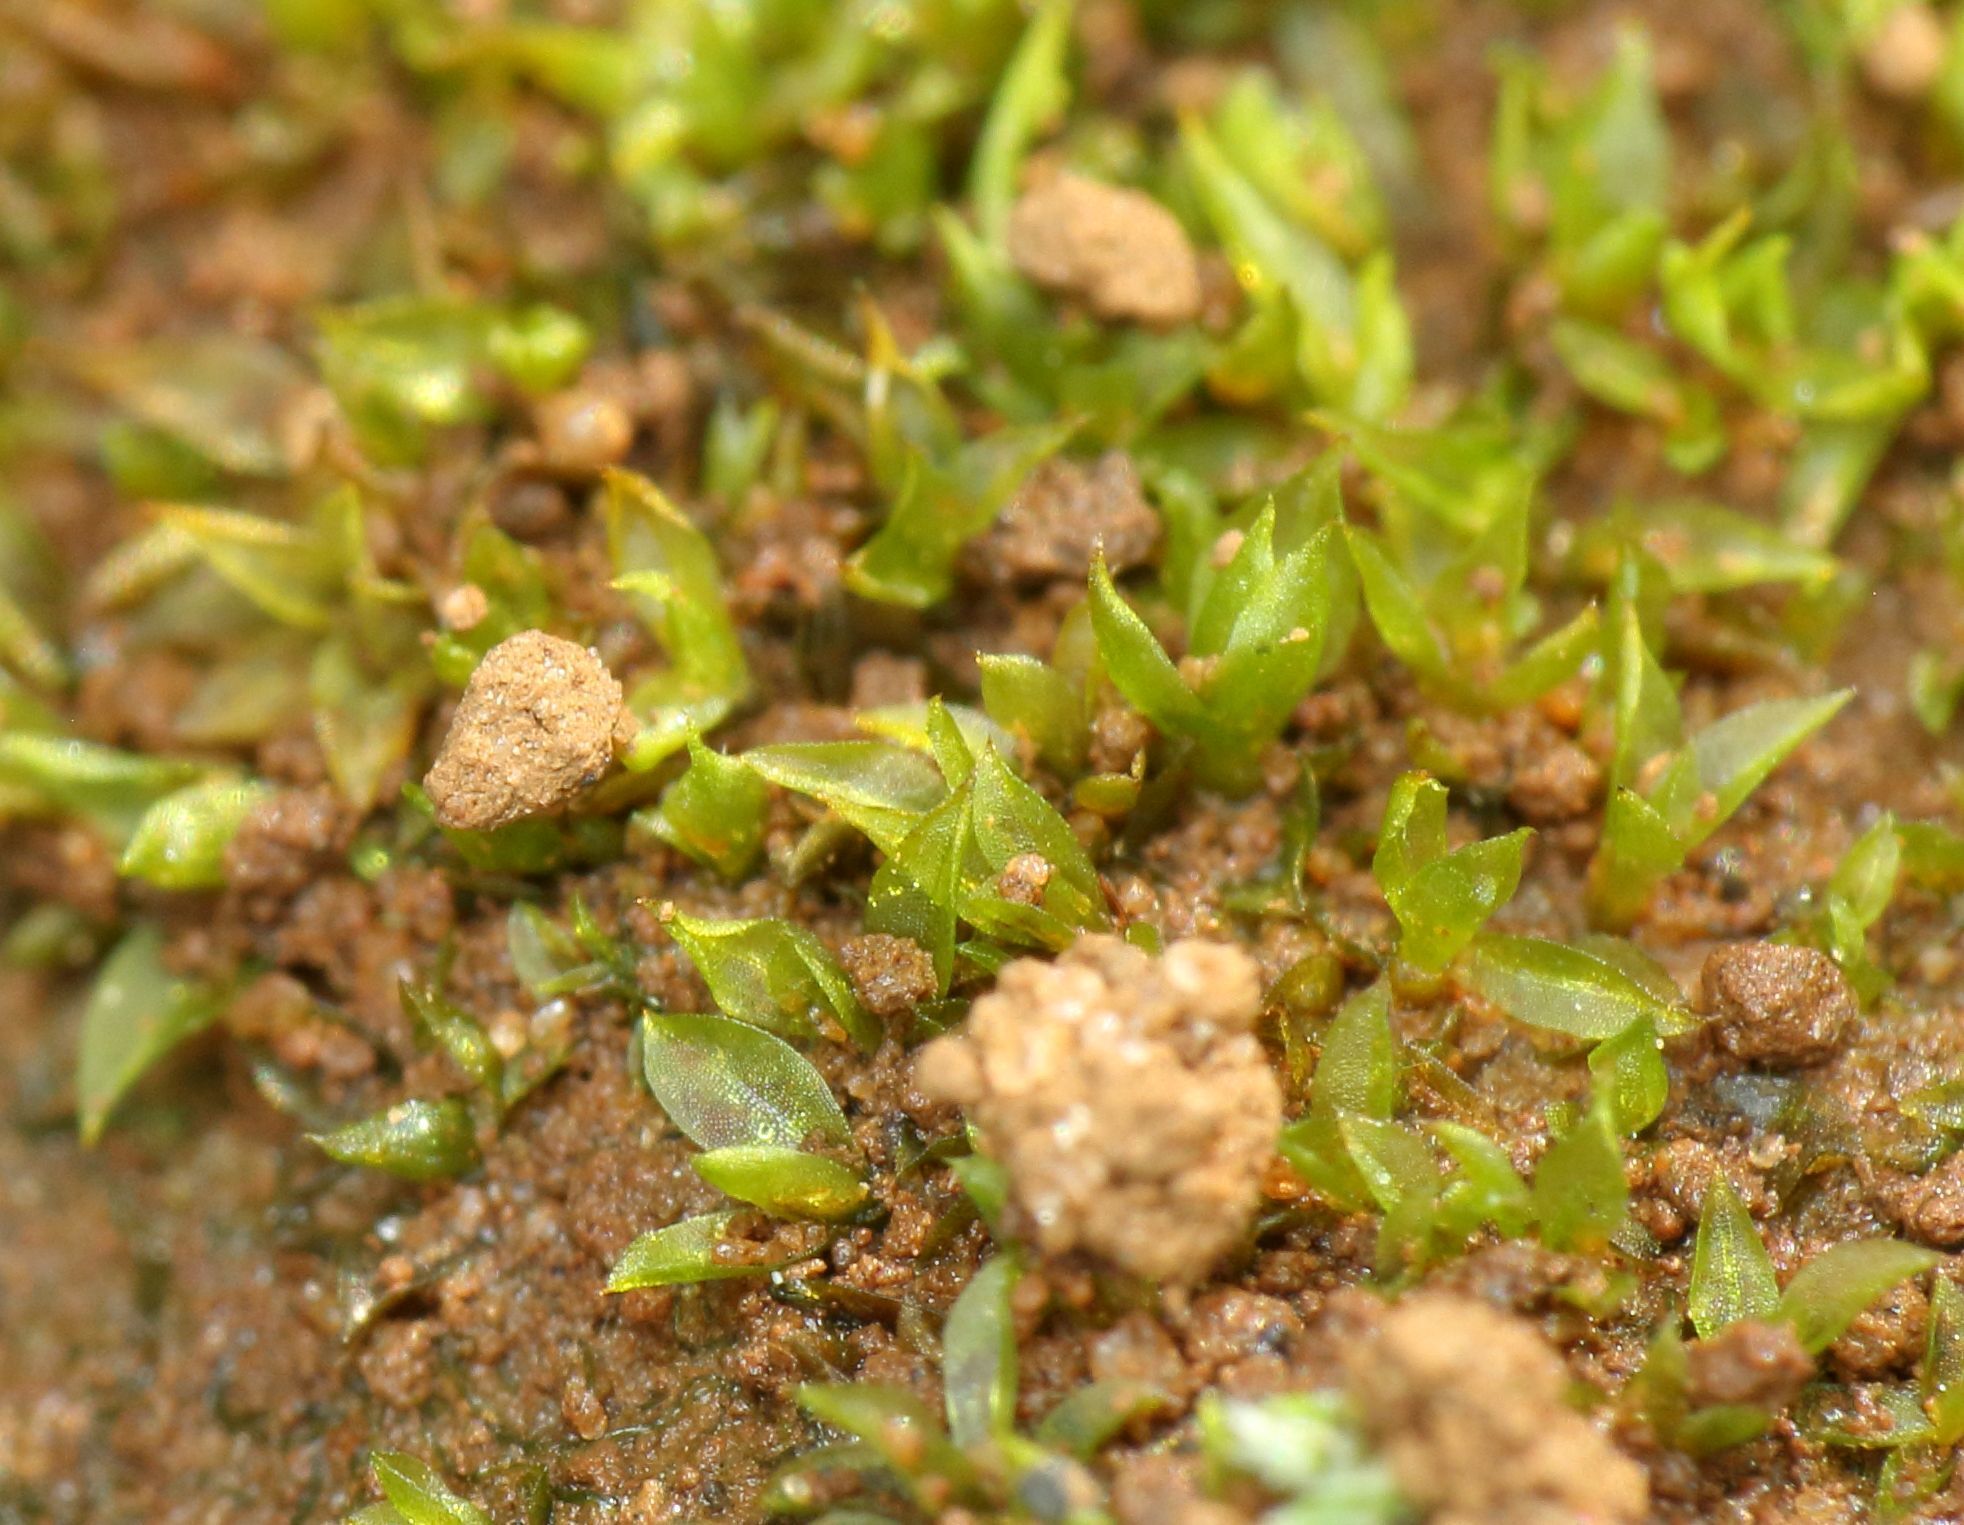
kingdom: Plantae
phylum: Bryophyta
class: Bryopsida
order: Pottiales
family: Pottiaceae
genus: Chenia
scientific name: Chenia leptophylla
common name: Vectis moss
